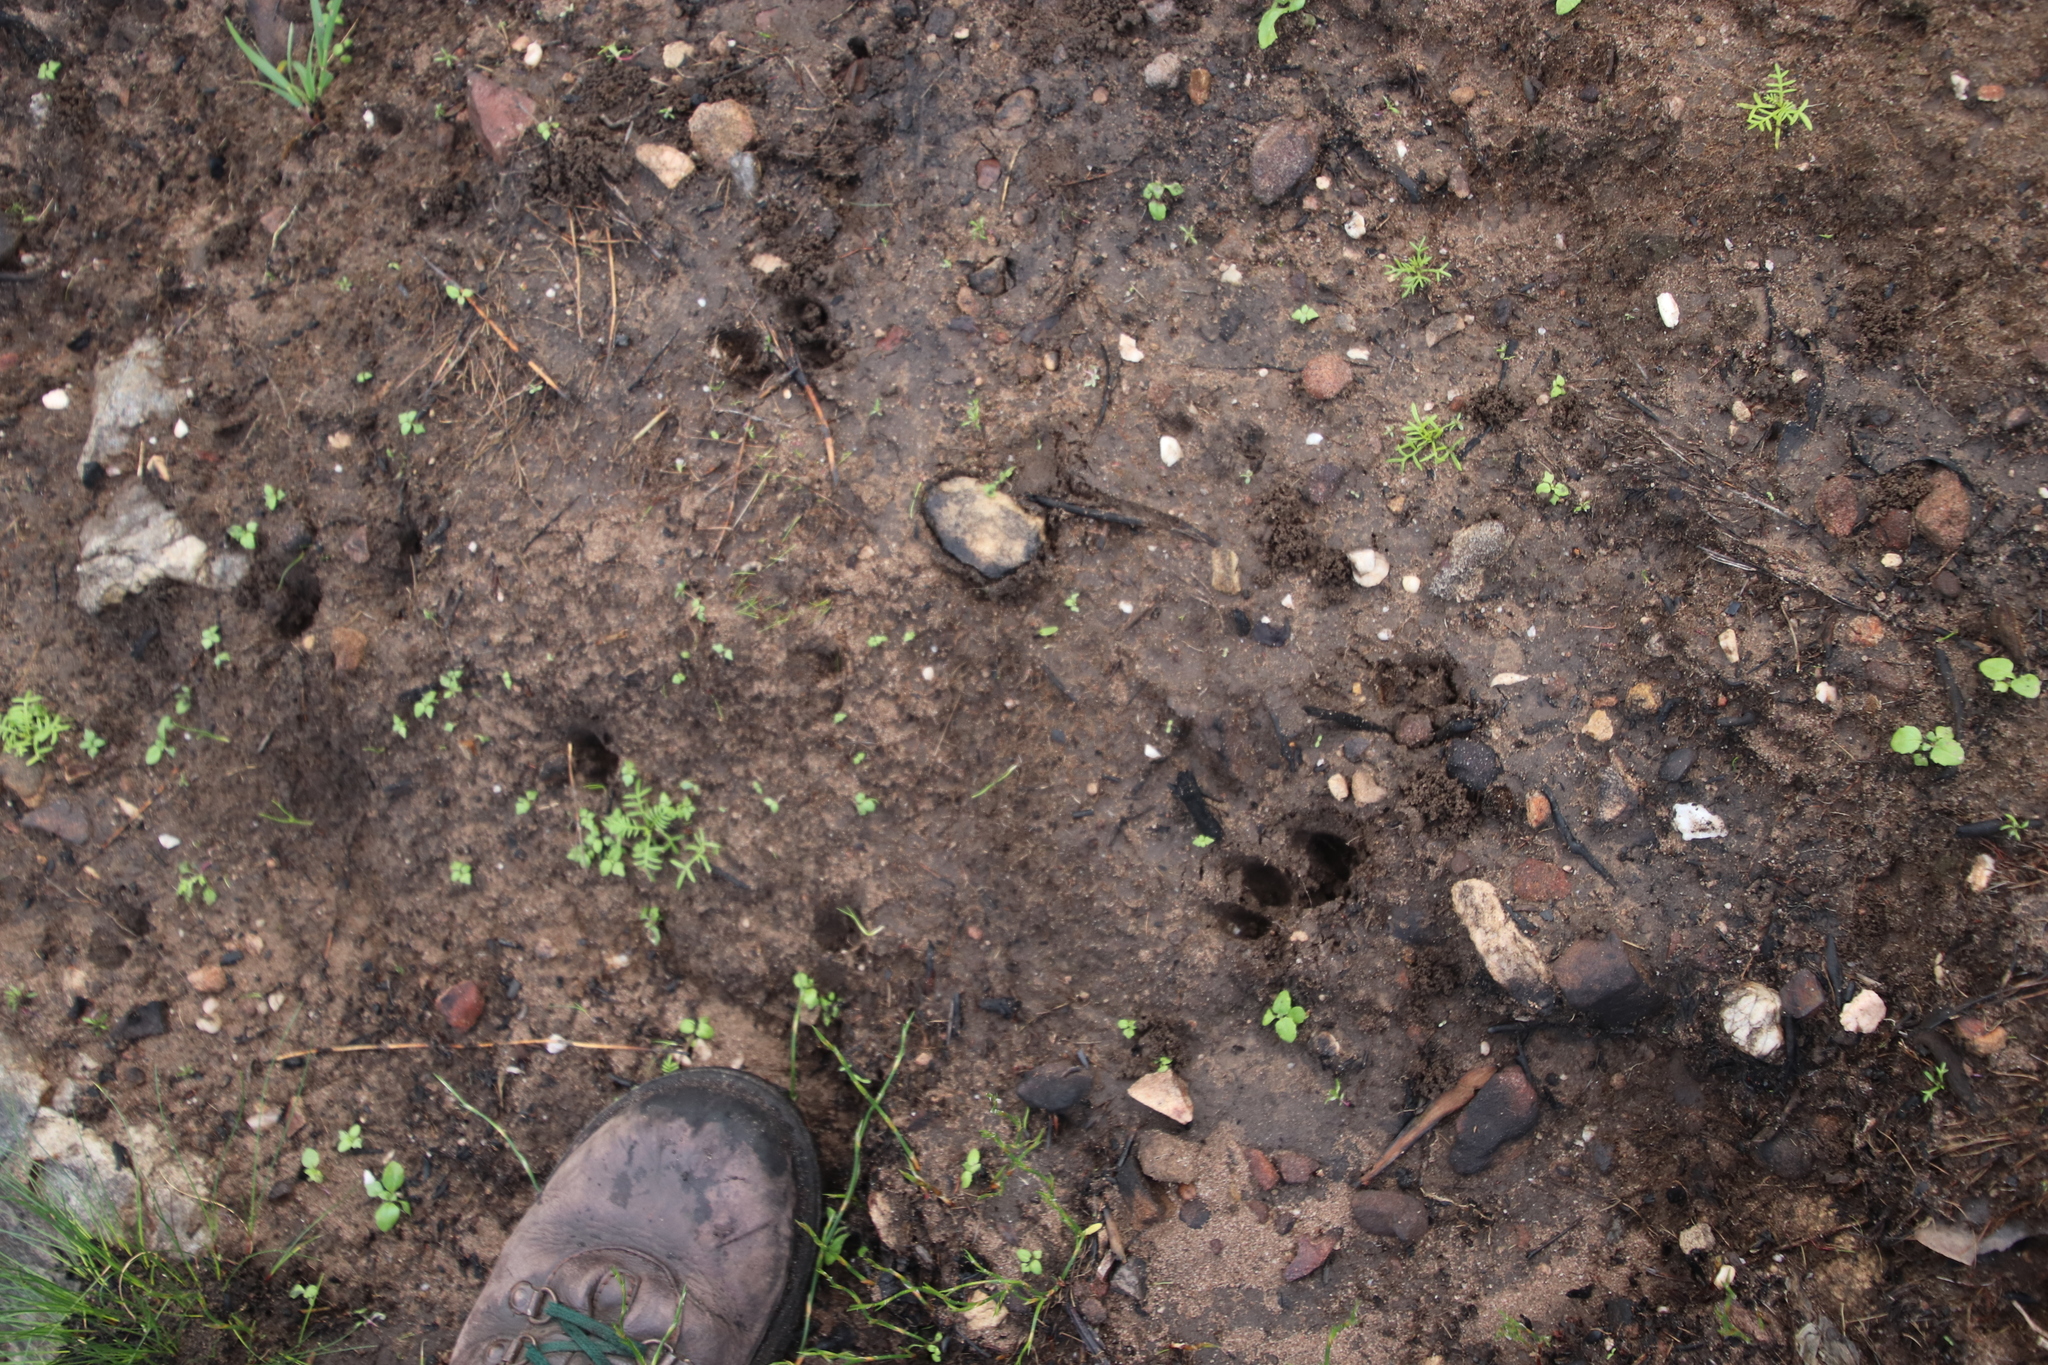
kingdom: Animalia
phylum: Chordata
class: Mammalia
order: Artiodactyla
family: Bovidae
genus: Oreotragus
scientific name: Oreotragus oreotragus
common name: Klipspringer
